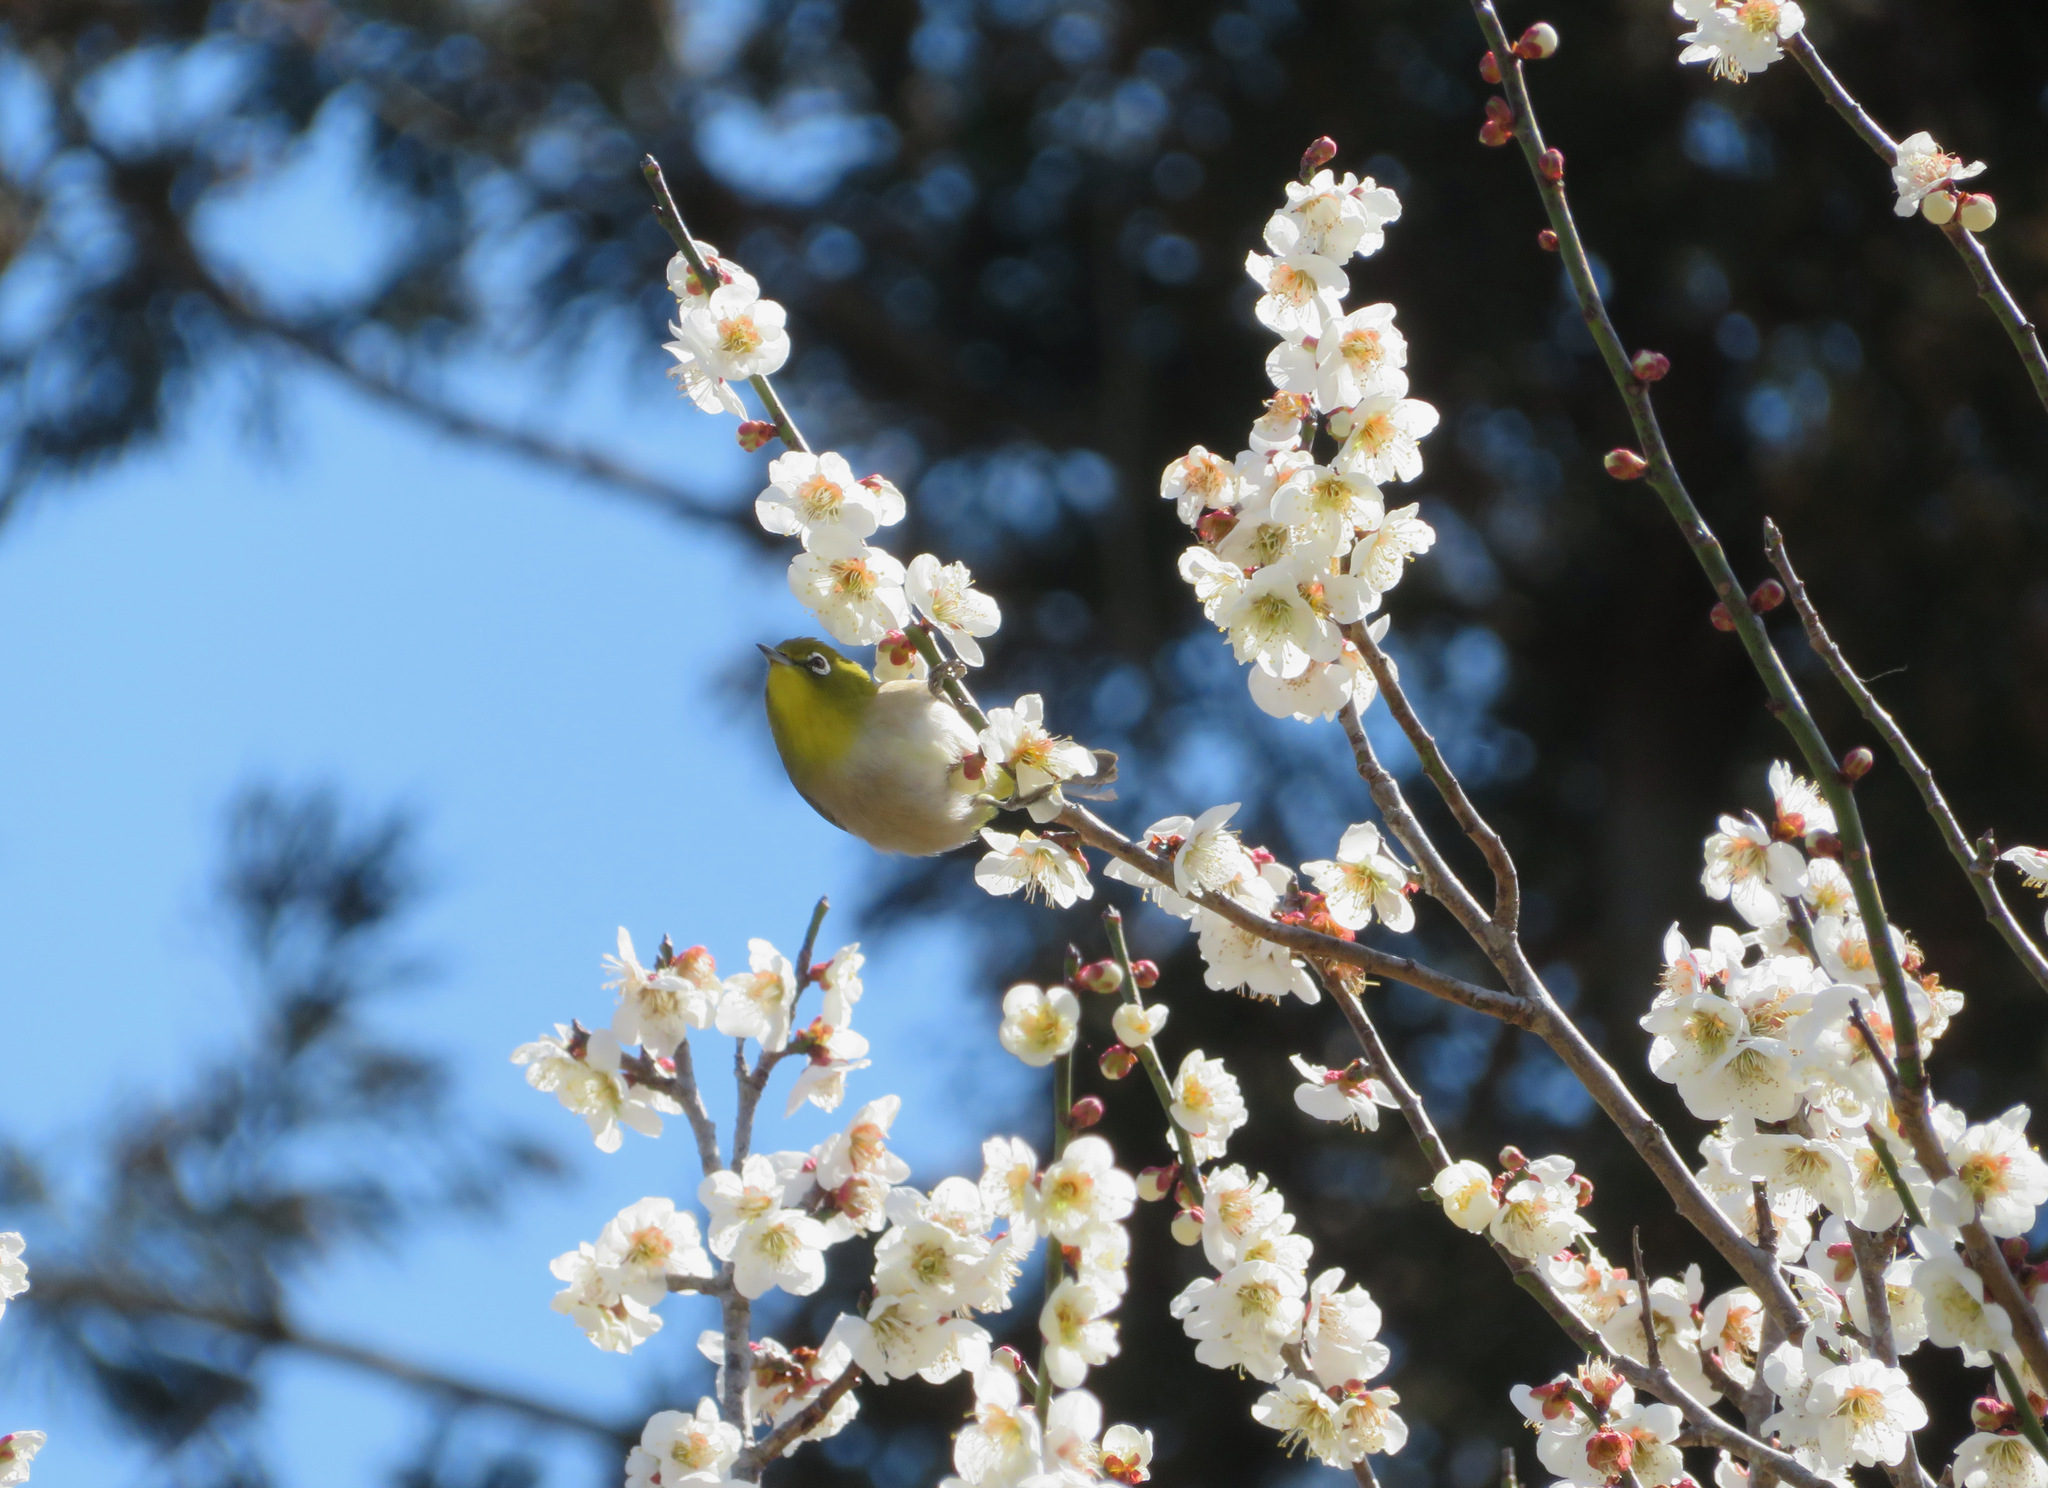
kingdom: Animalia
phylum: Chordata
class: Aves
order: Passeriformes
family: Zosteropidae
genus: Zosterops
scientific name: Zosterops japonicus
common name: Japanese white-eye
